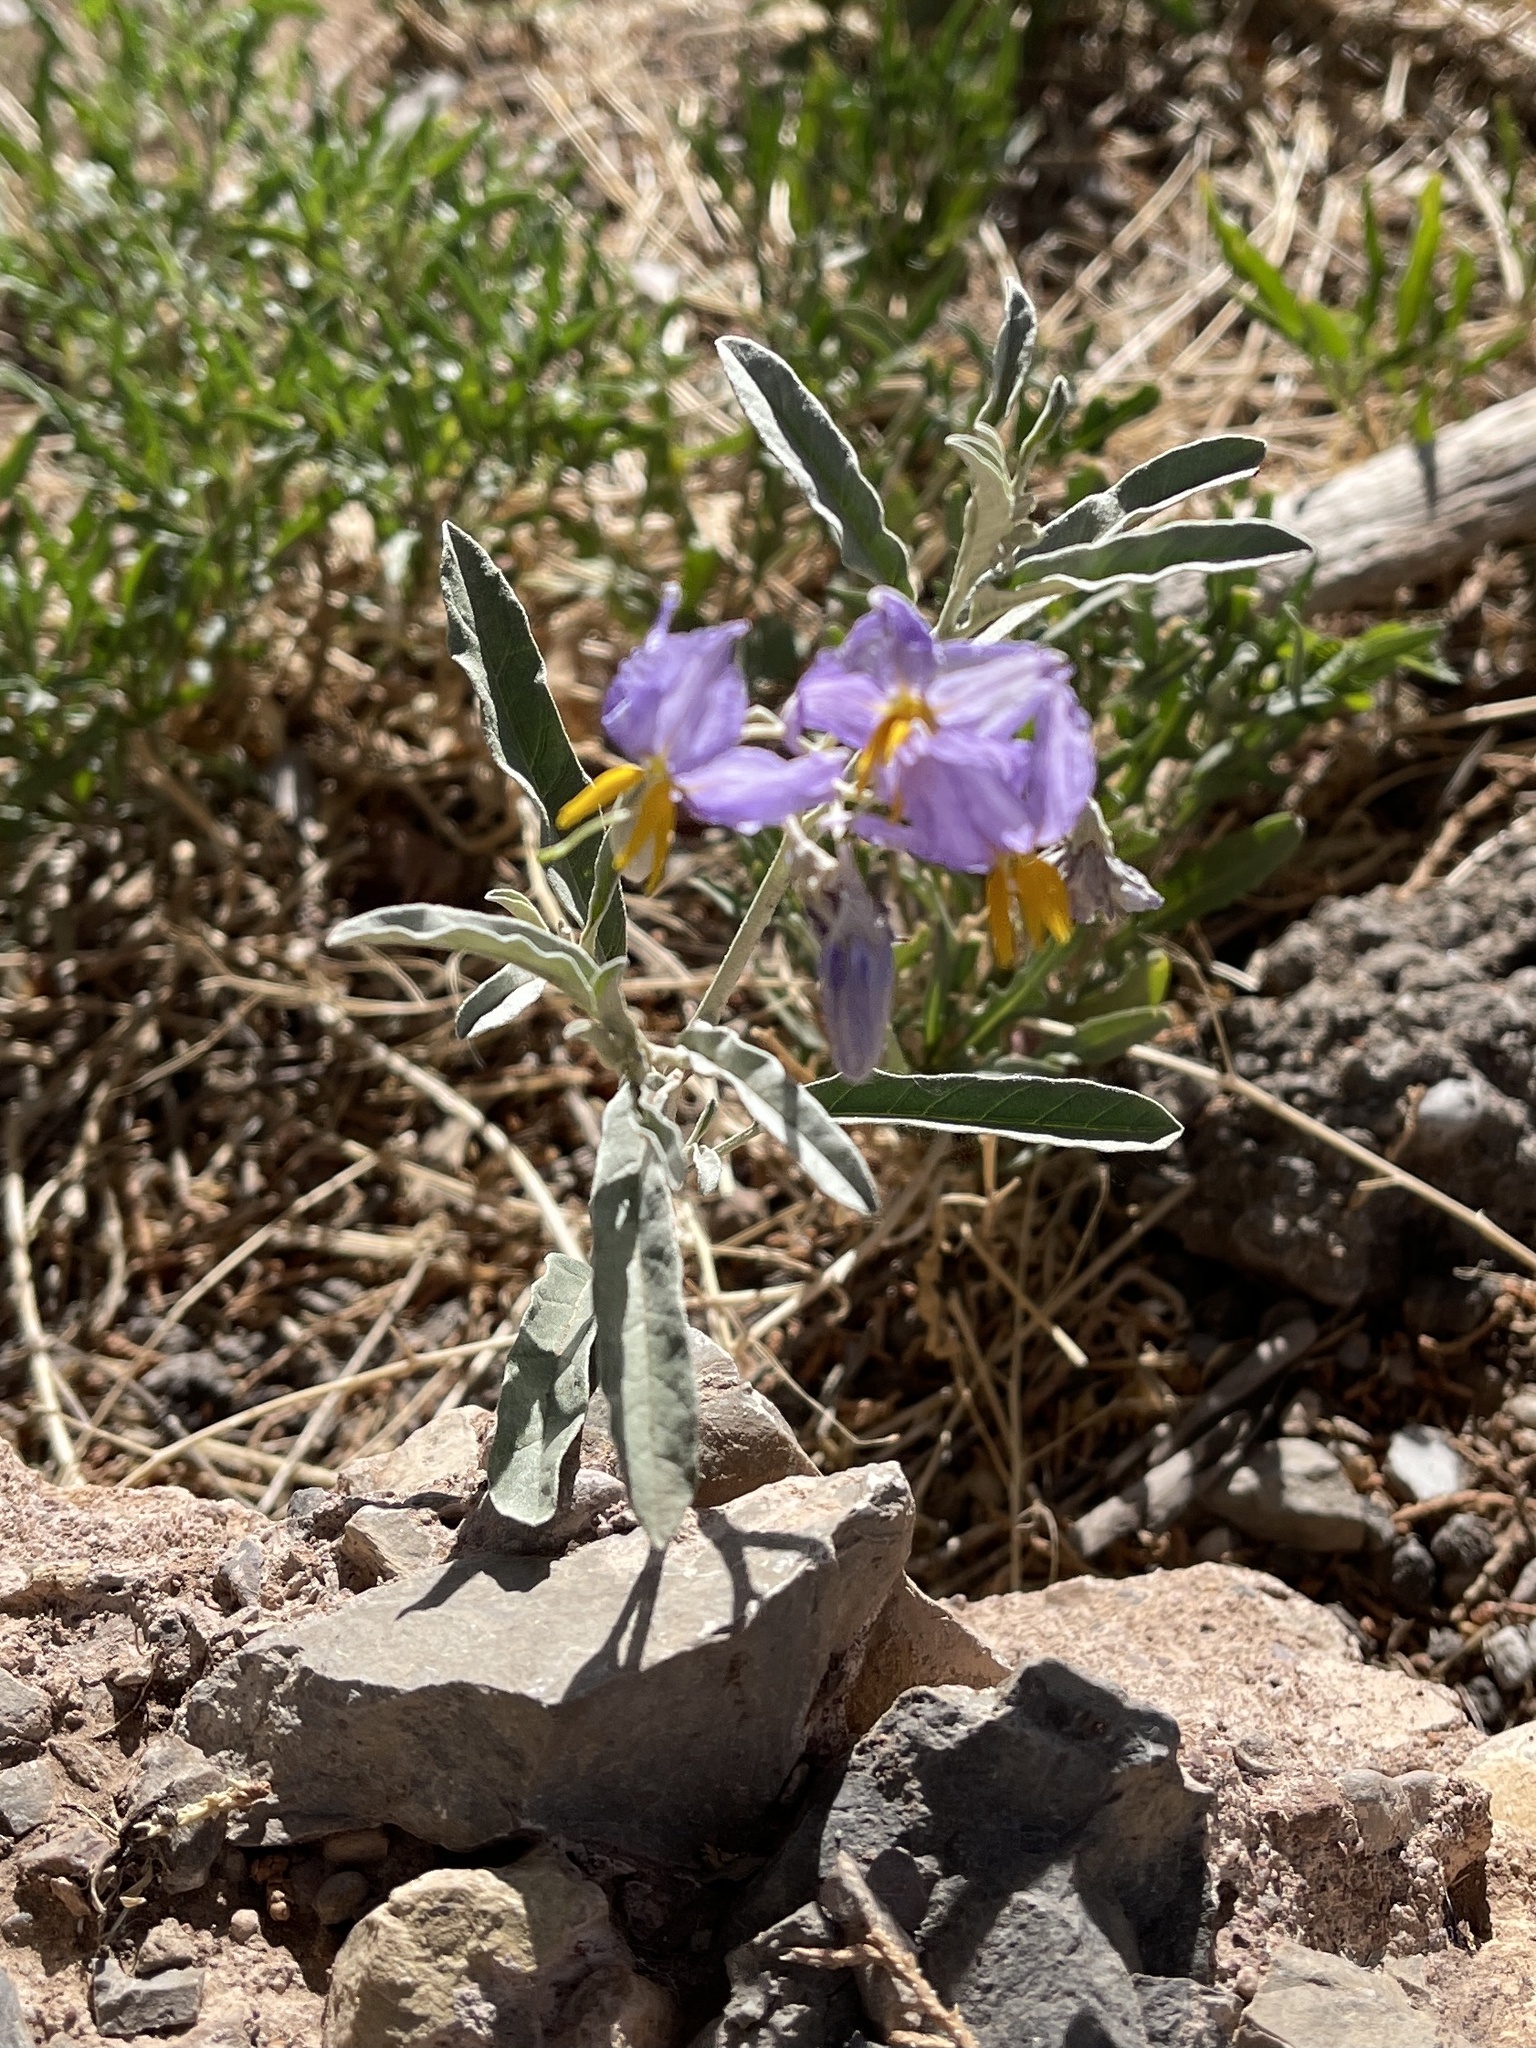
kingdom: Plantae
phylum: Tracheophyta
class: Magnoliopsida
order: Solanales
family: Solanaceae
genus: Solanum
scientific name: Solanum elaeagnifolium
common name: Silverleaf nightshade
